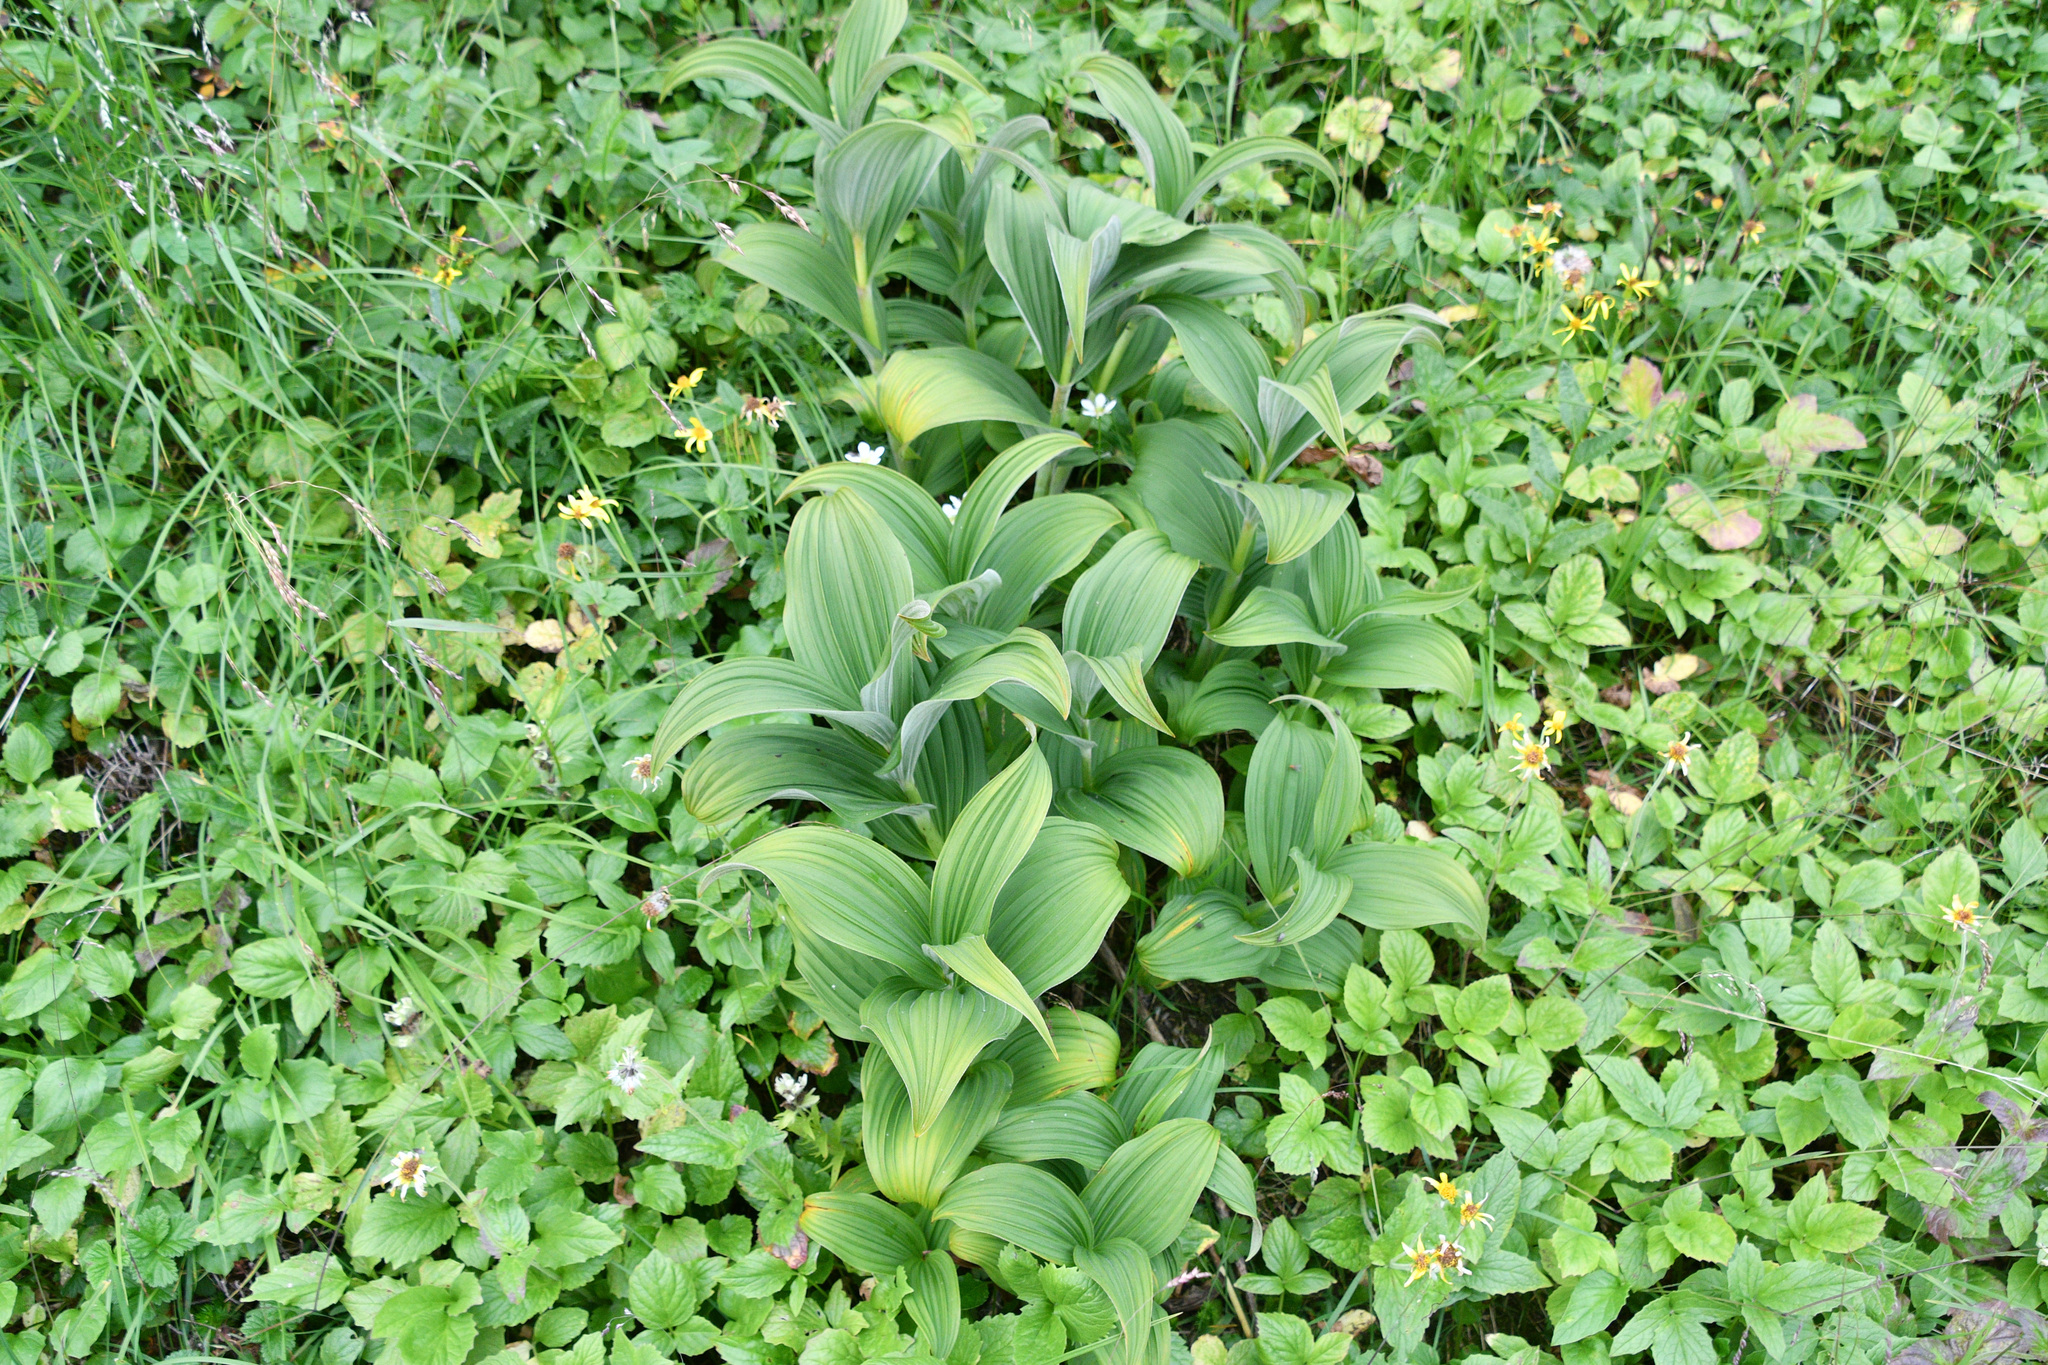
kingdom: Plantae
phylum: Tracheophyta
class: Liliopsida
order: Liliales
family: Melanthiaceae
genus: Veratrum
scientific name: Veratrum viride
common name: American false hellebore
